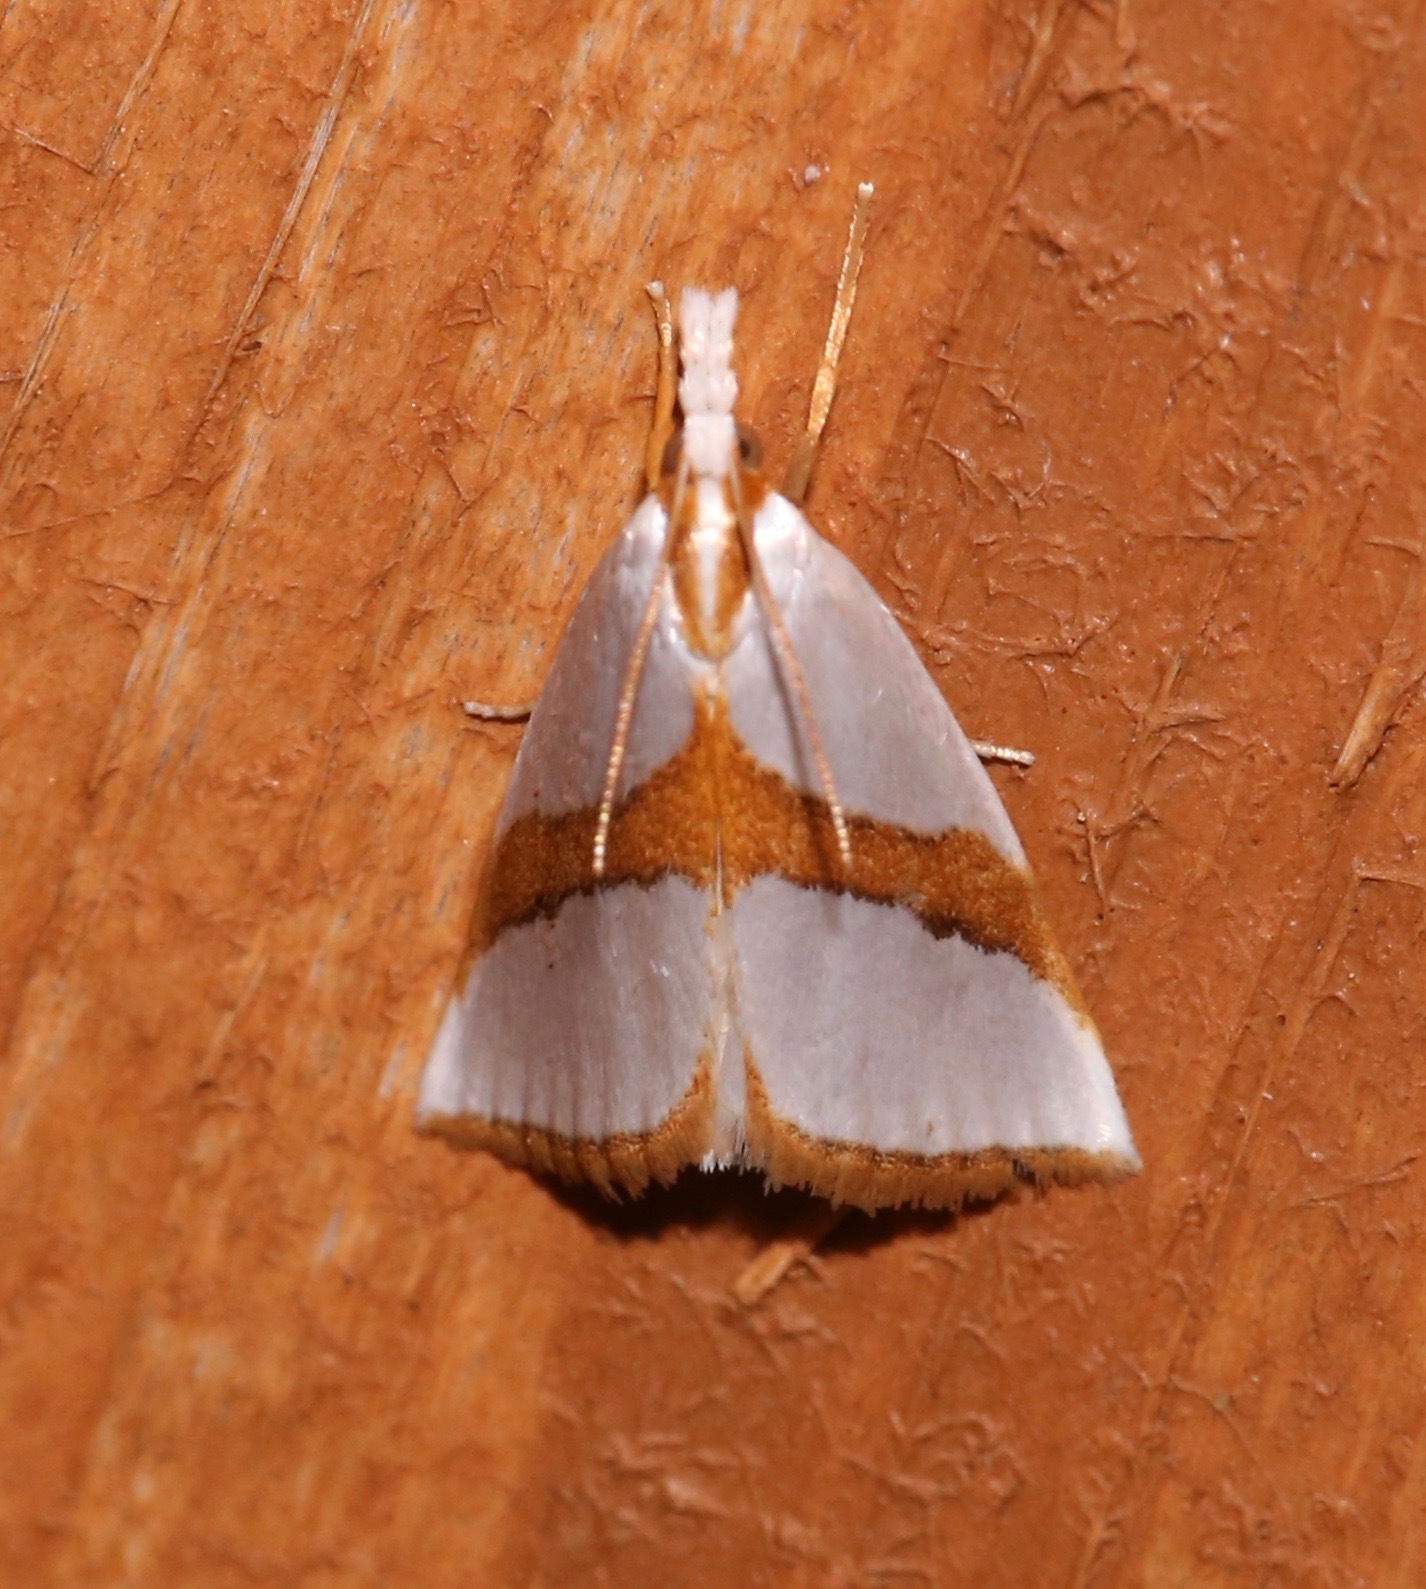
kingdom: Animalia
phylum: Arthropoda
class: Insecta
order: Lepidoptera
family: Crambidae
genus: Vaxi
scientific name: Vaxi critica
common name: Straight-lined vaxi moth
